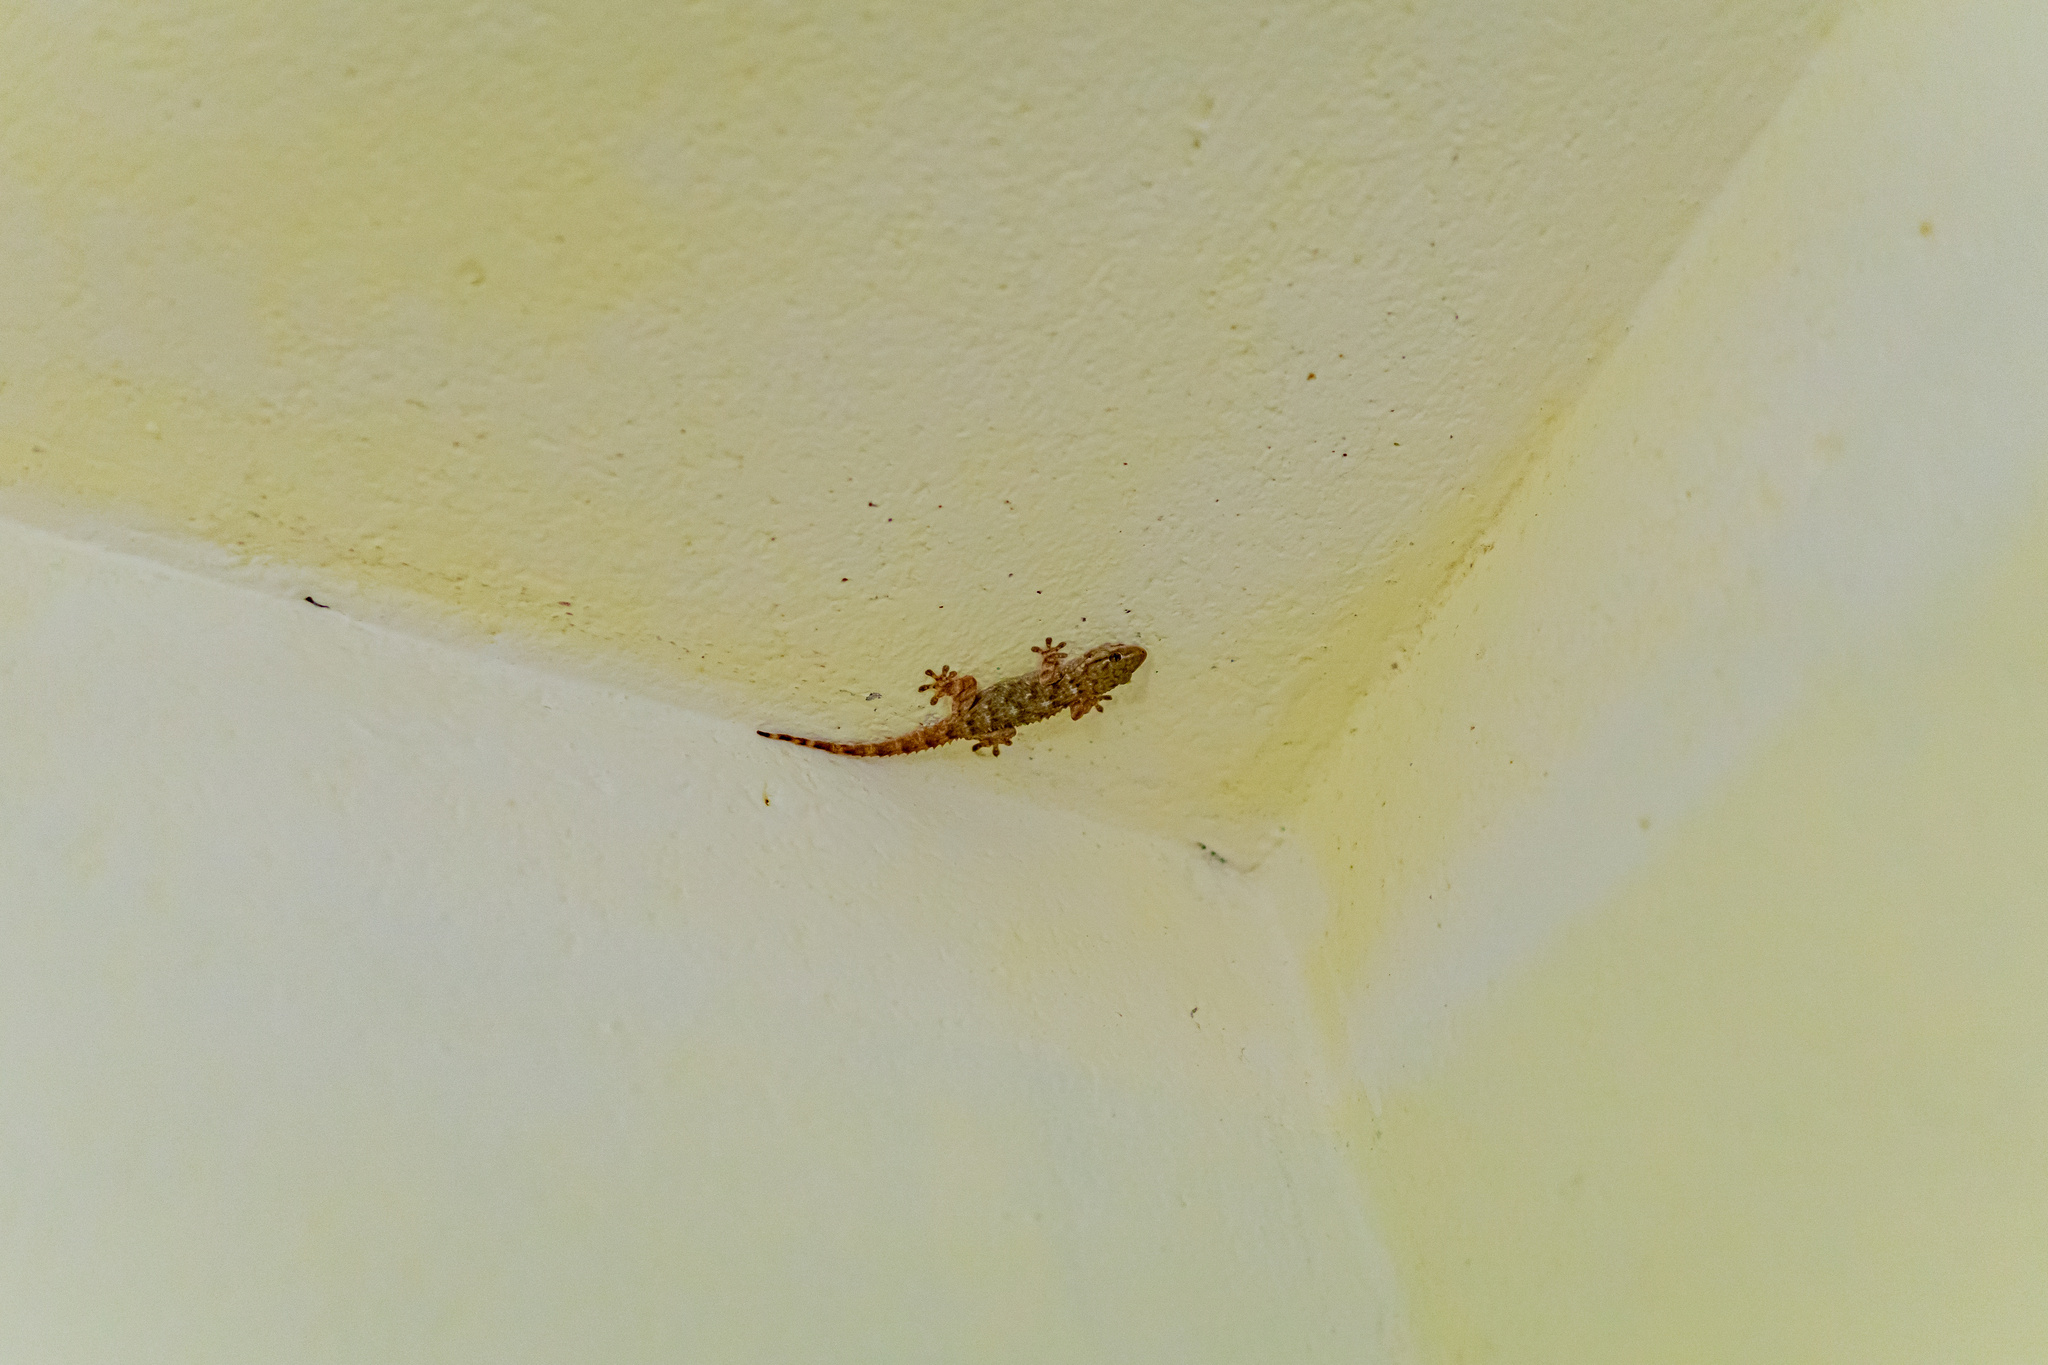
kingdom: Animalia
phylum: Chordata
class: Squamata
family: Phyllodactylidae
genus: Tarentola
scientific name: Tarentola mauritanica
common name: Moorish gecko
